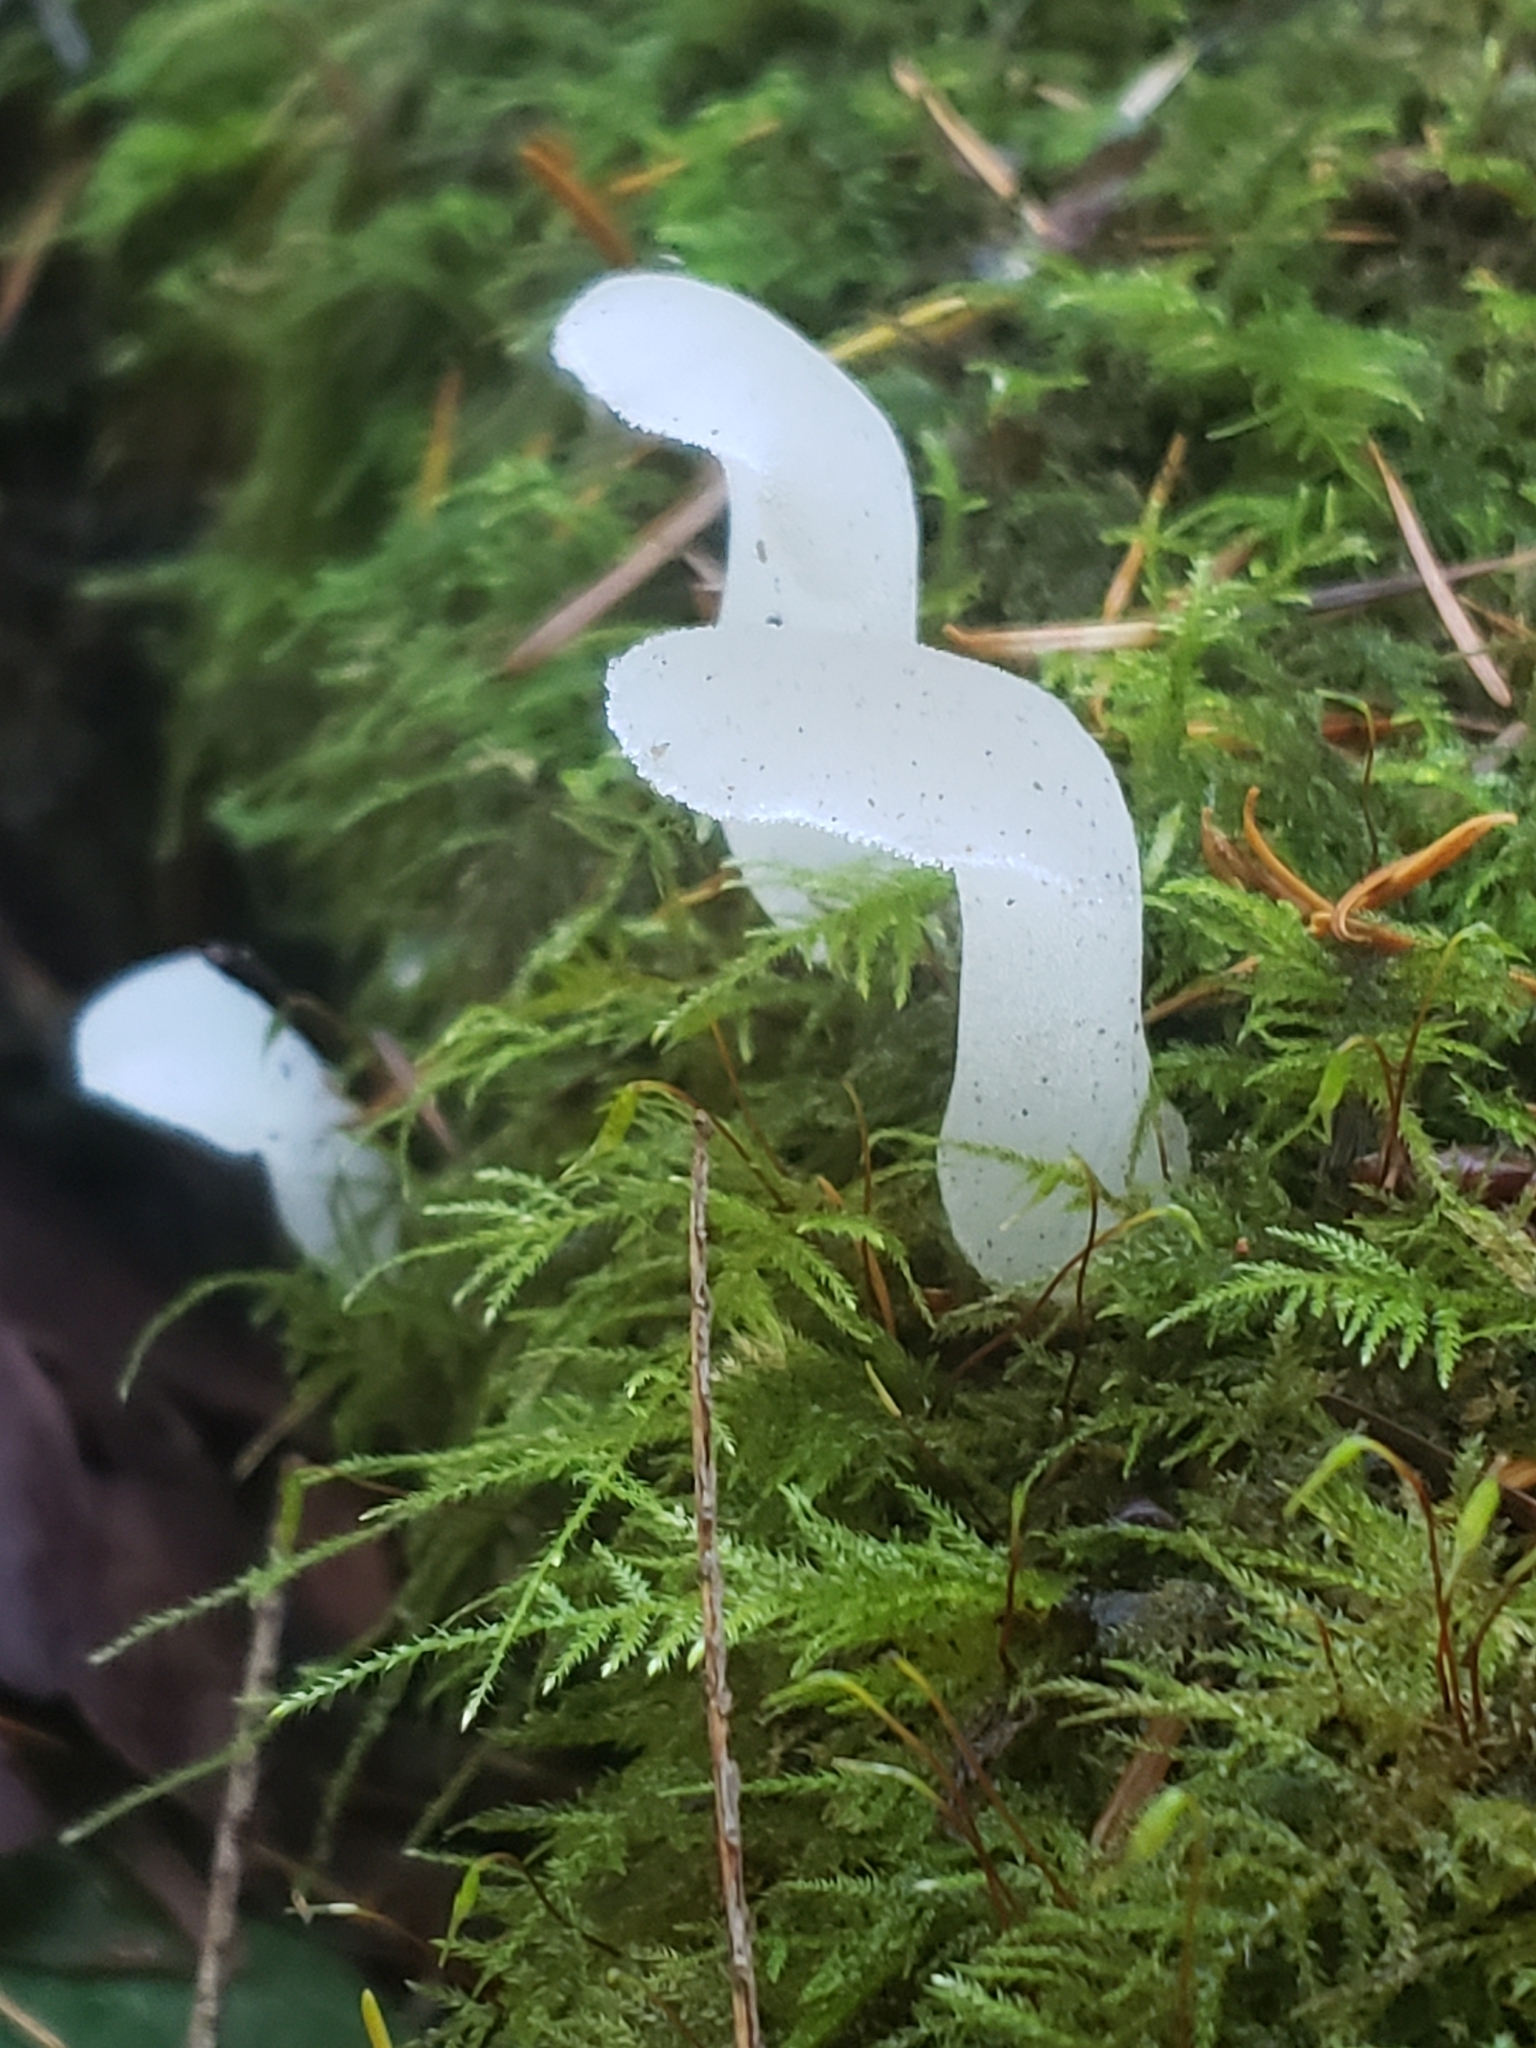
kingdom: Fungi
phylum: Basidiomycota
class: Agaricomycetes
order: Auriculariales
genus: Pseudohydnum
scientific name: Pseudohydnum gelatinosum
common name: Jelly tongue
